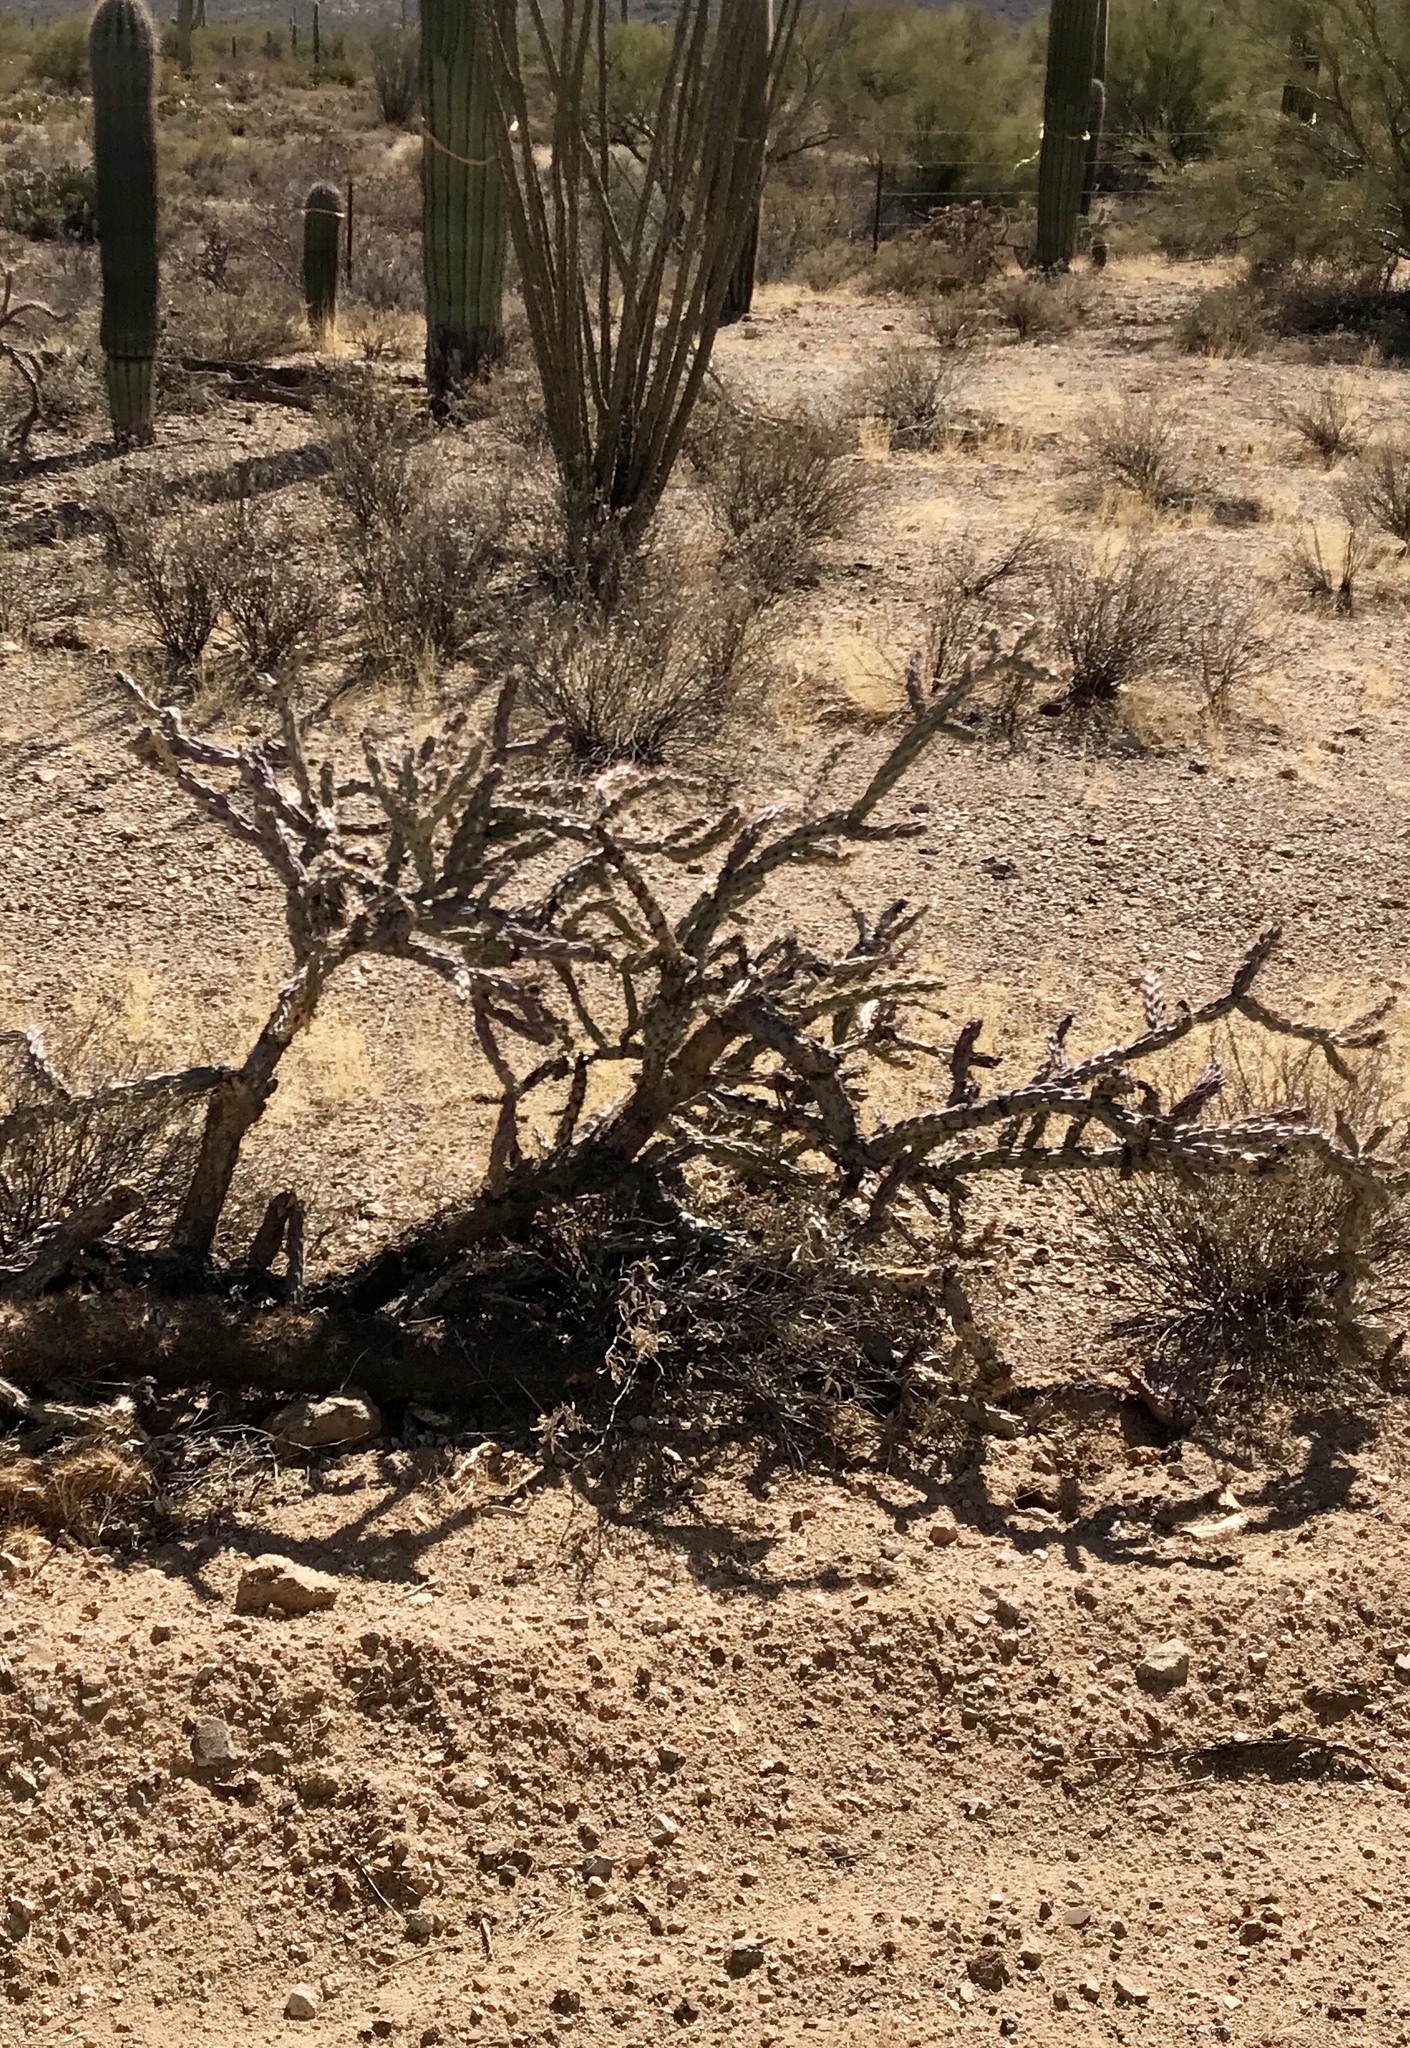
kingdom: Plantae
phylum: Tracheophyta
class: Magnoliopsida
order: Caryophyllales
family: Cactaceae
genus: Cylindropuntia
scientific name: Cylindropuntia acanthocarpa
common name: Buckhorn cholla
